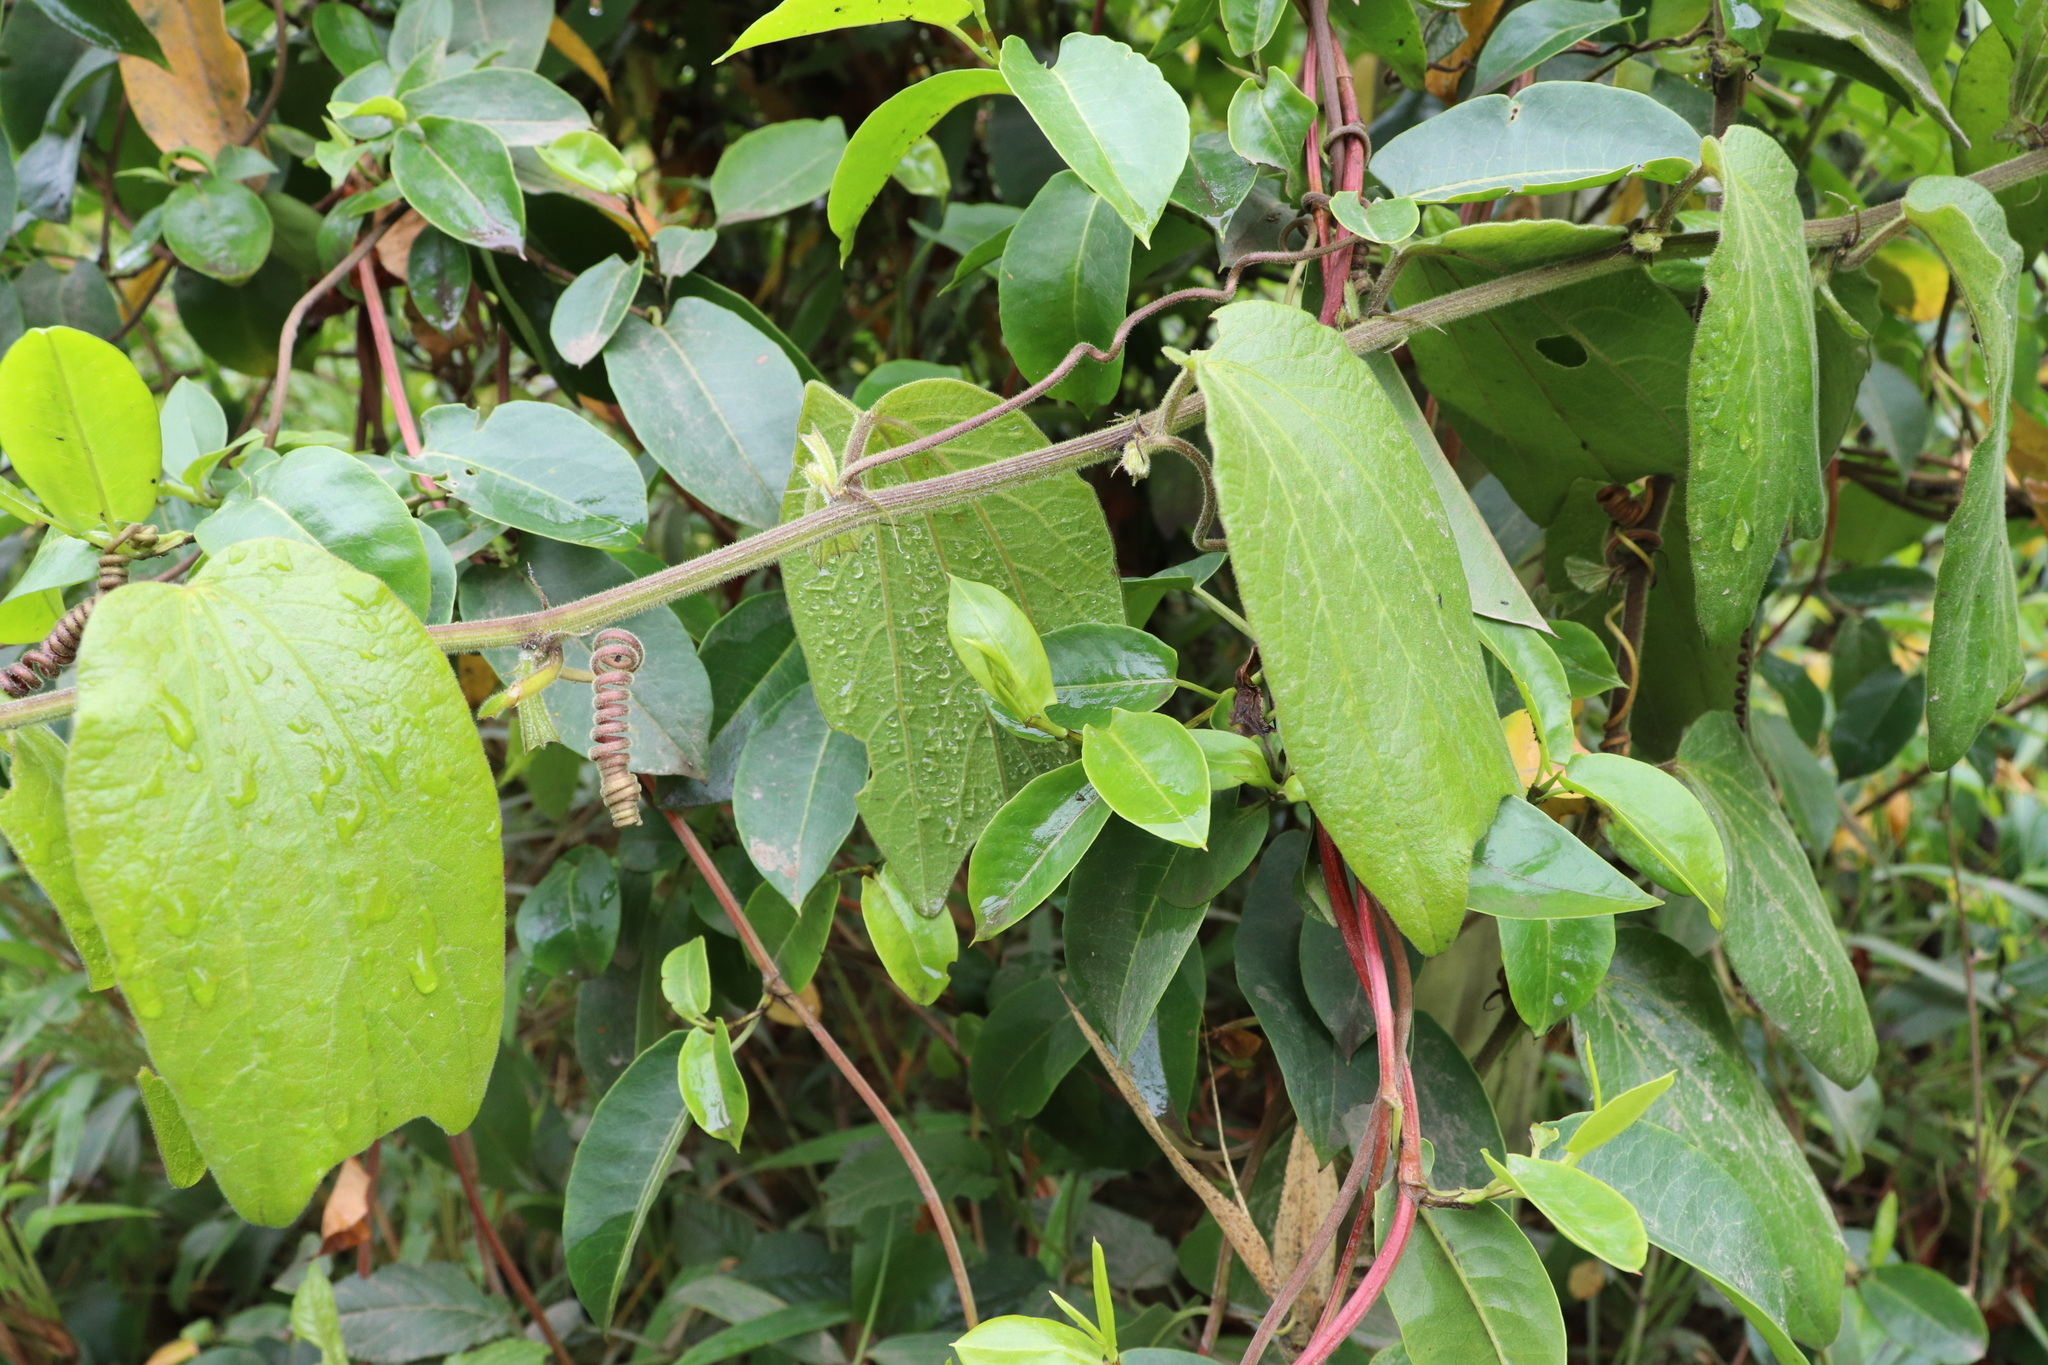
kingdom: Plantae
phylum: Tracheophyta
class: Magnoliopsida
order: Malpighiales
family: Passifloraceae
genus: Passiflora
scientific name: Passiflora bogotensis
